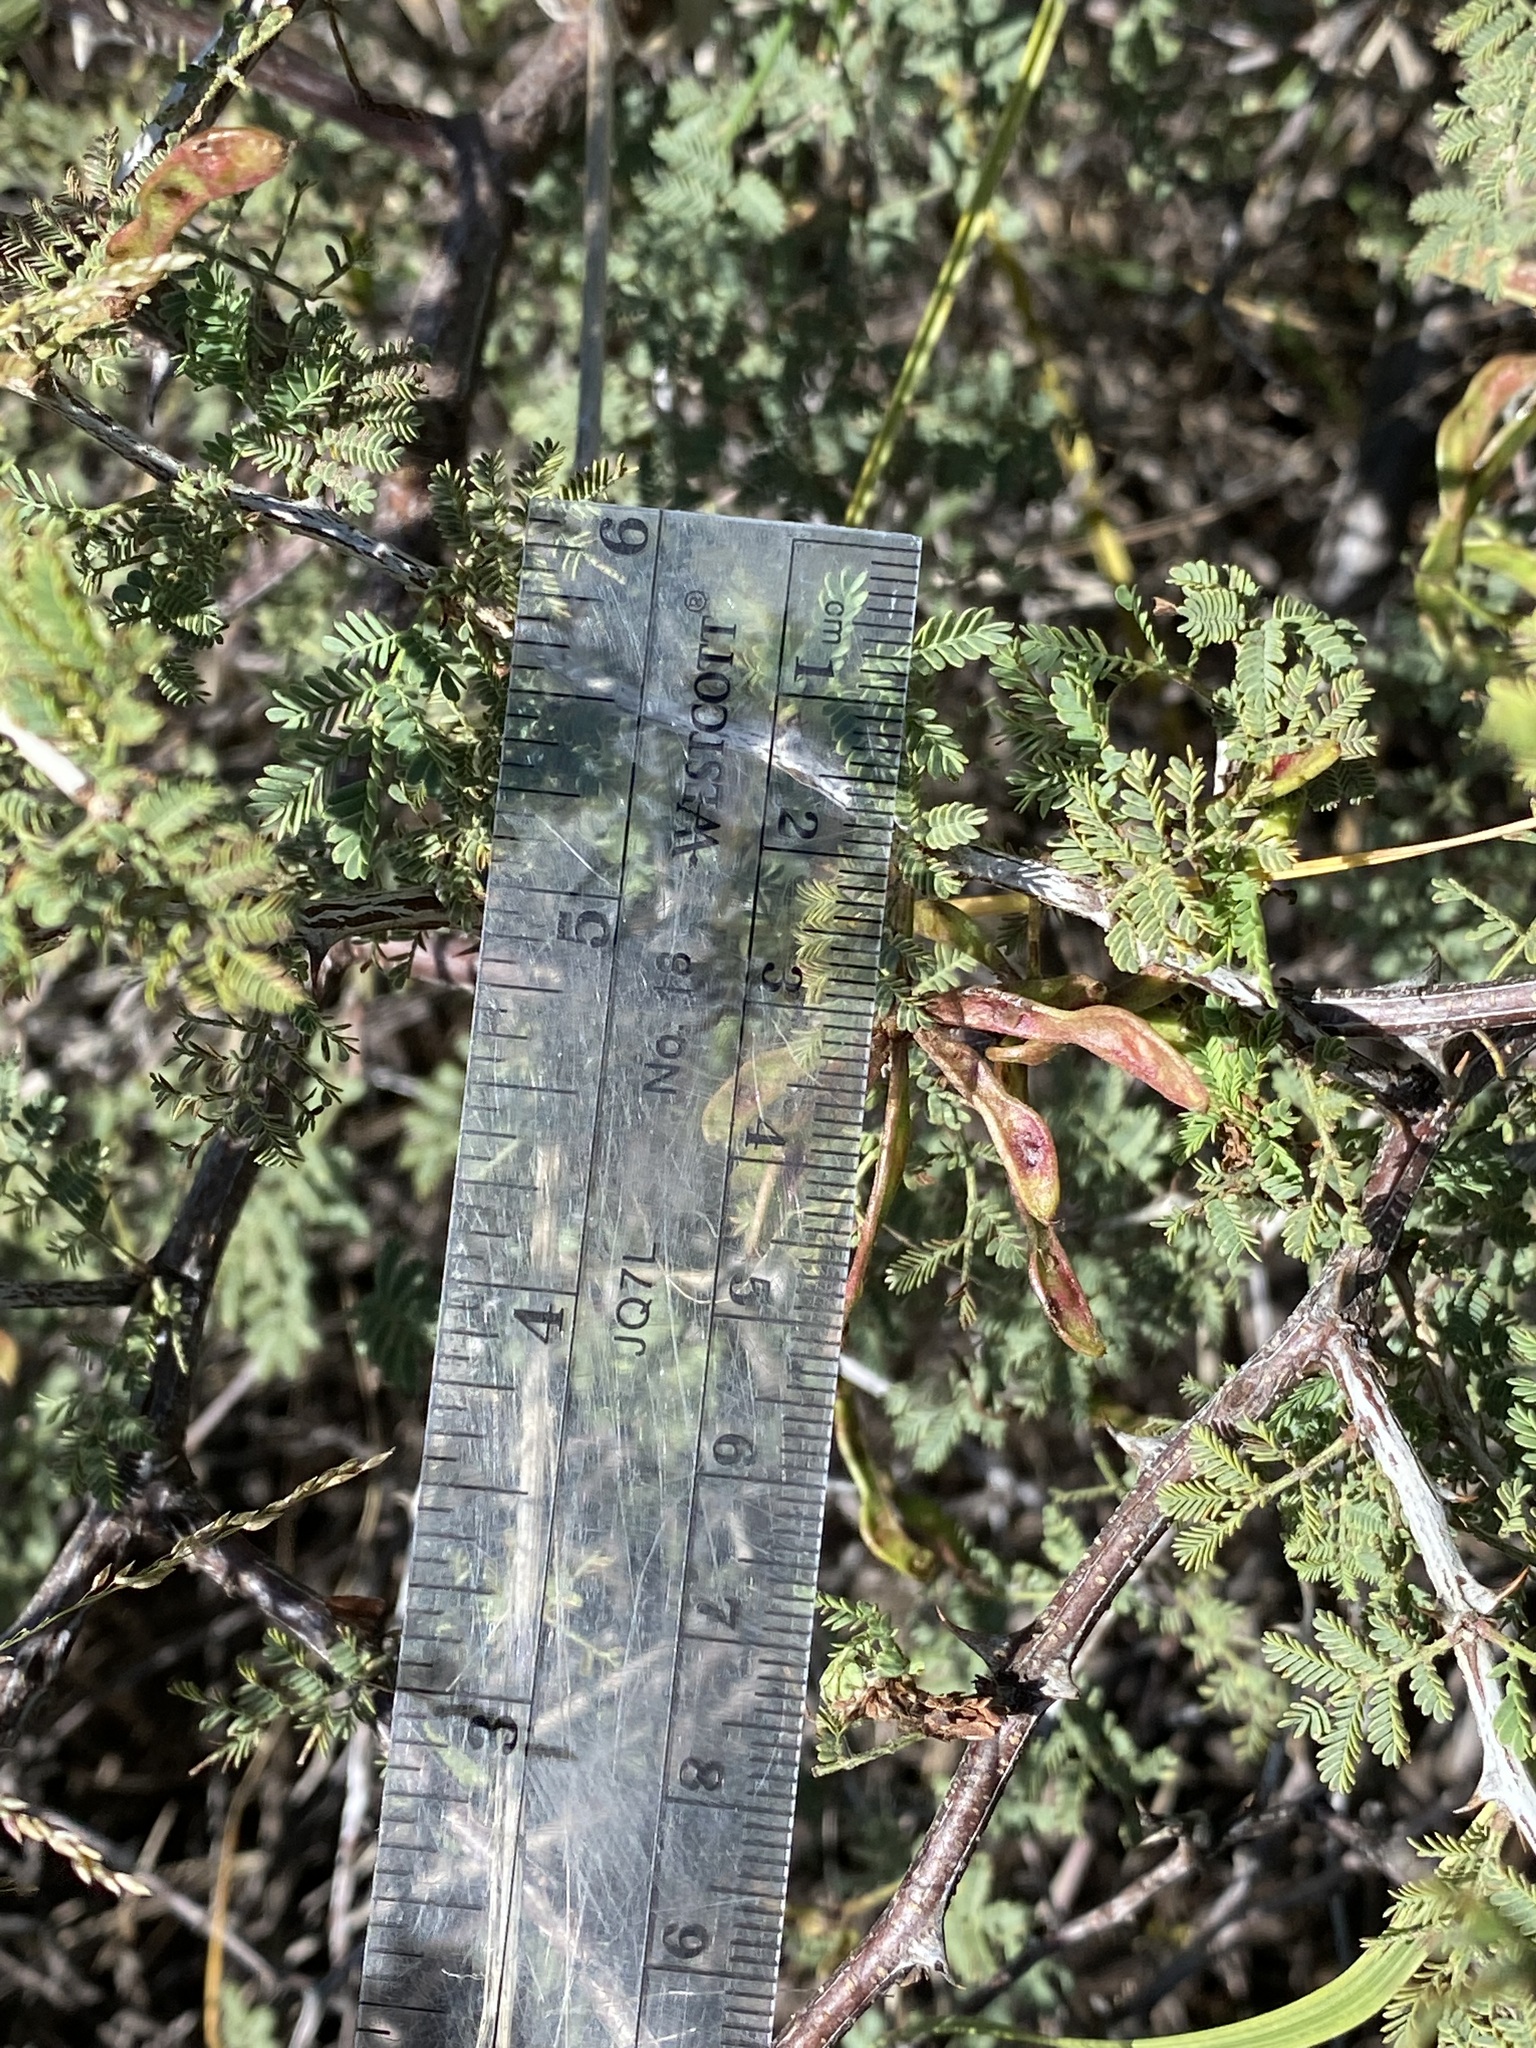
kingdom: Plantae
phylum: Tracheophyta
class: Magnoliopsida
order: Fabales
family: Fabaceae
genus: Mimosa
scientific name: Mimosa biuncifera
